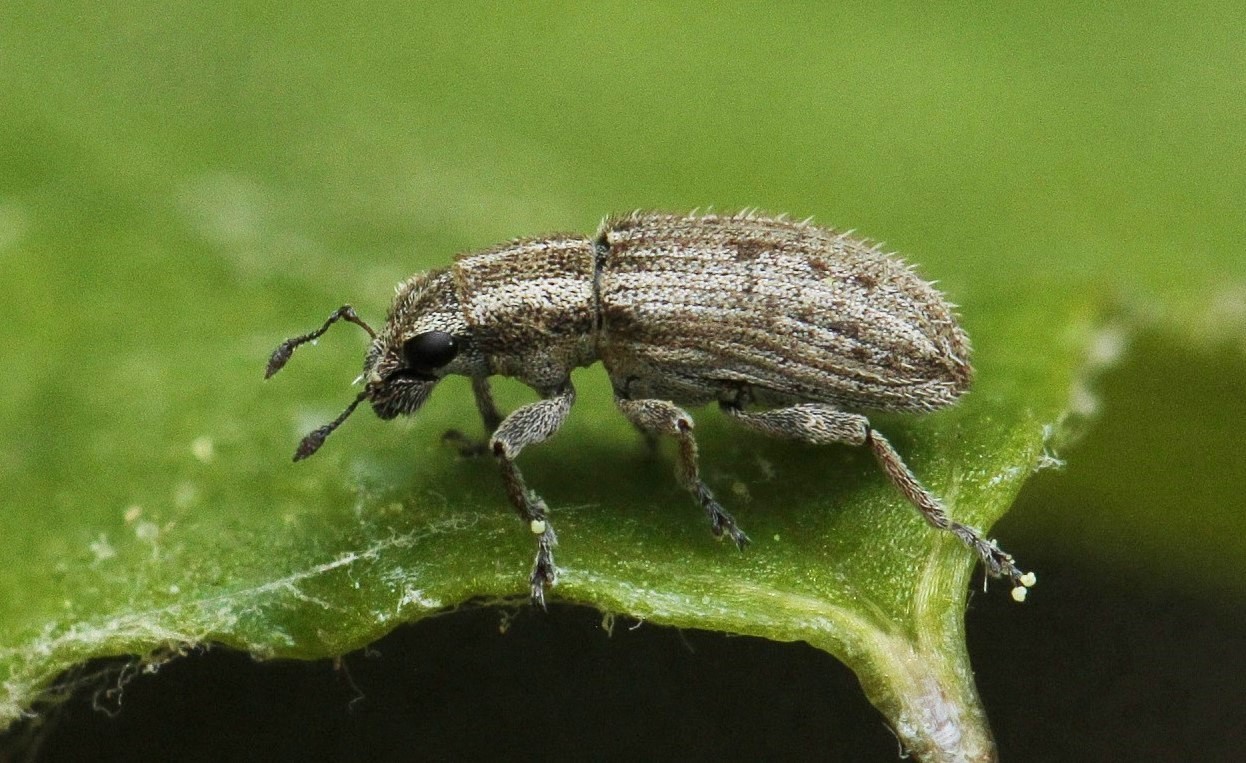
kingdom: Animalia
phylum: Arthropoda
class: Insecta
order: Coleoptera
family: Curculionidae
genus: Sitona
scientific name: Sitona macularius
